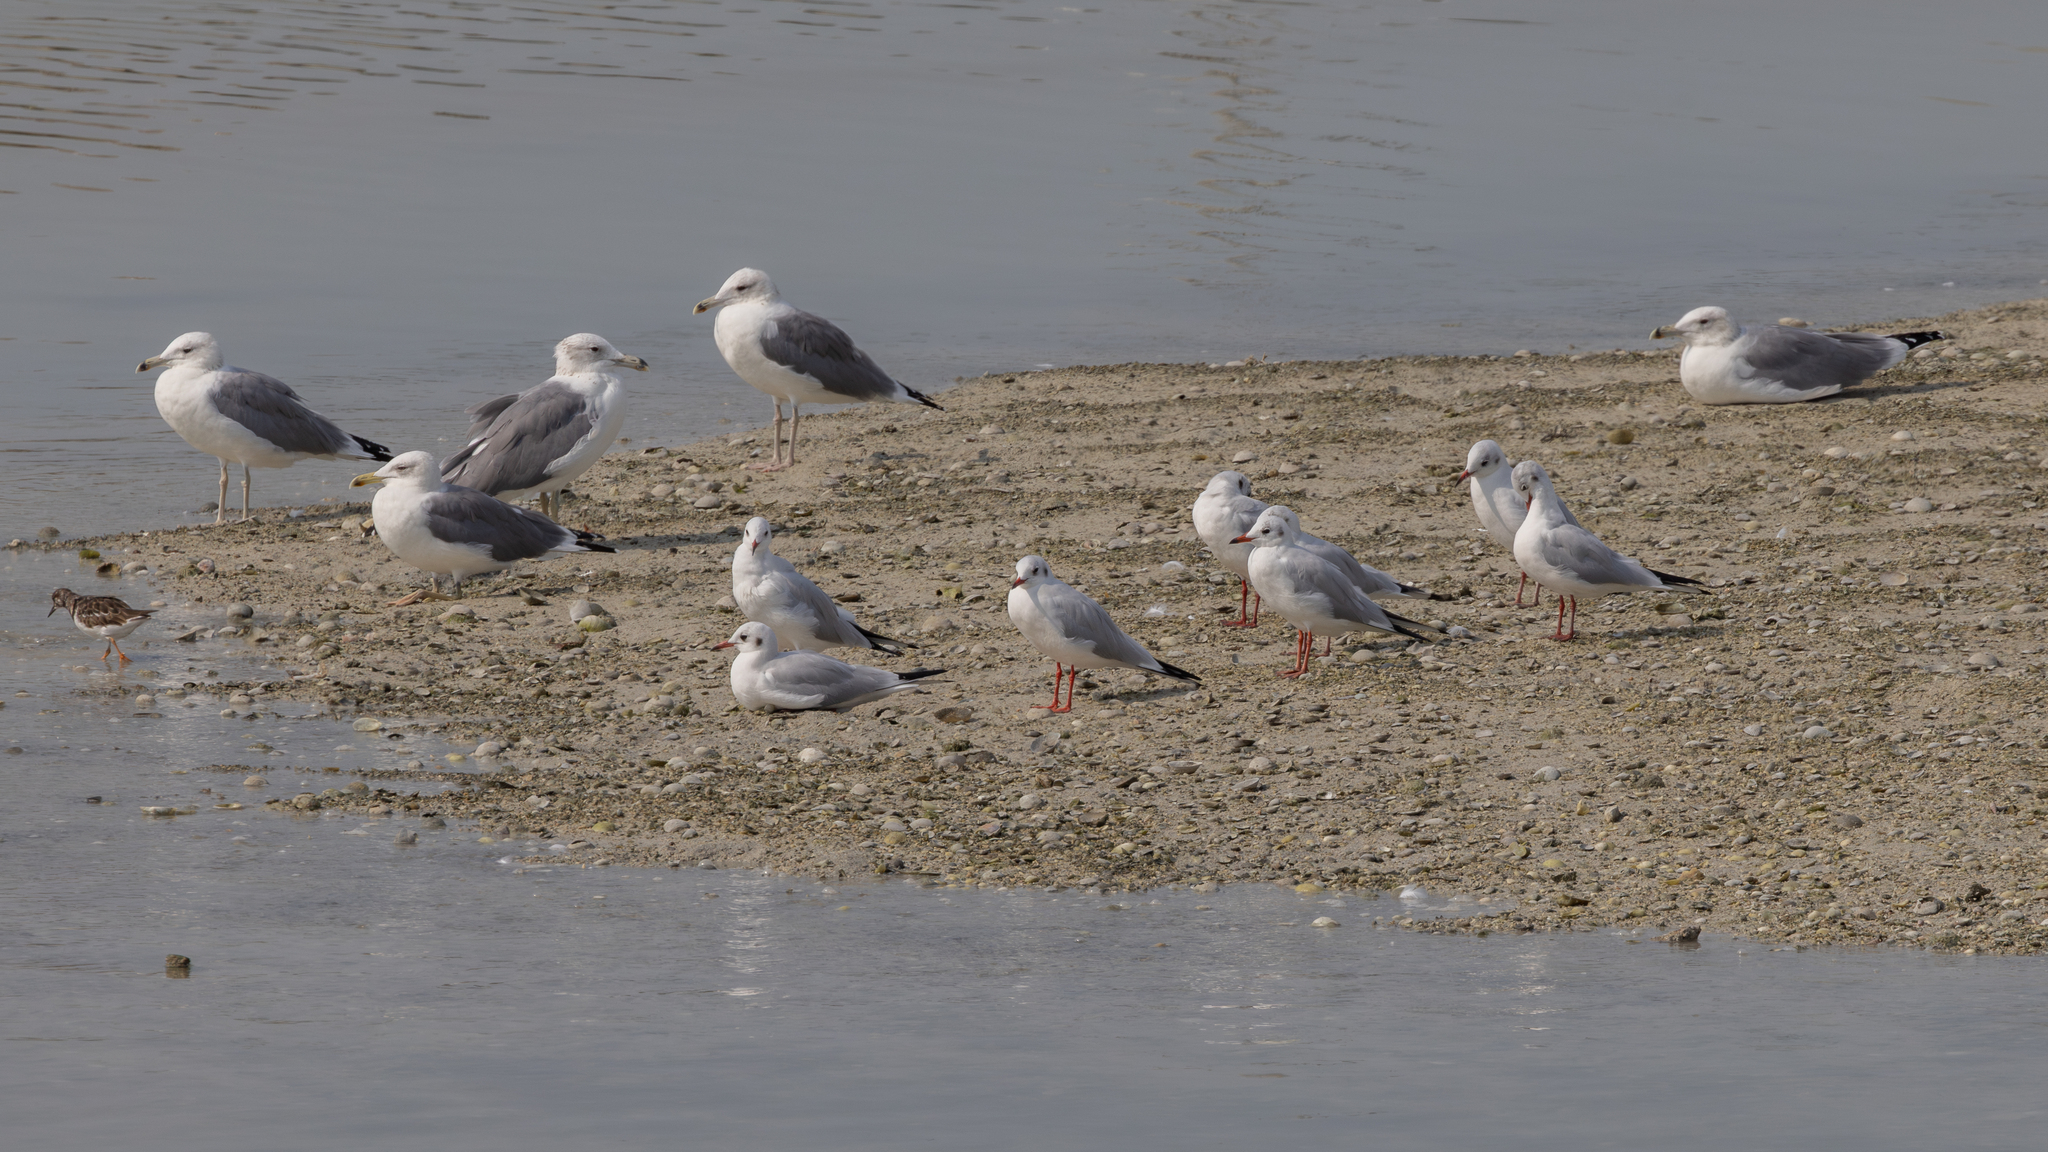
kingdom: Animalia
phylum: Chordata
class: Aves
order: Charadriiformes
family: Laridae
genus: Chroicocephalus
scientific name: Chroicocephalus ridibundus
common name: Black-headed gull
